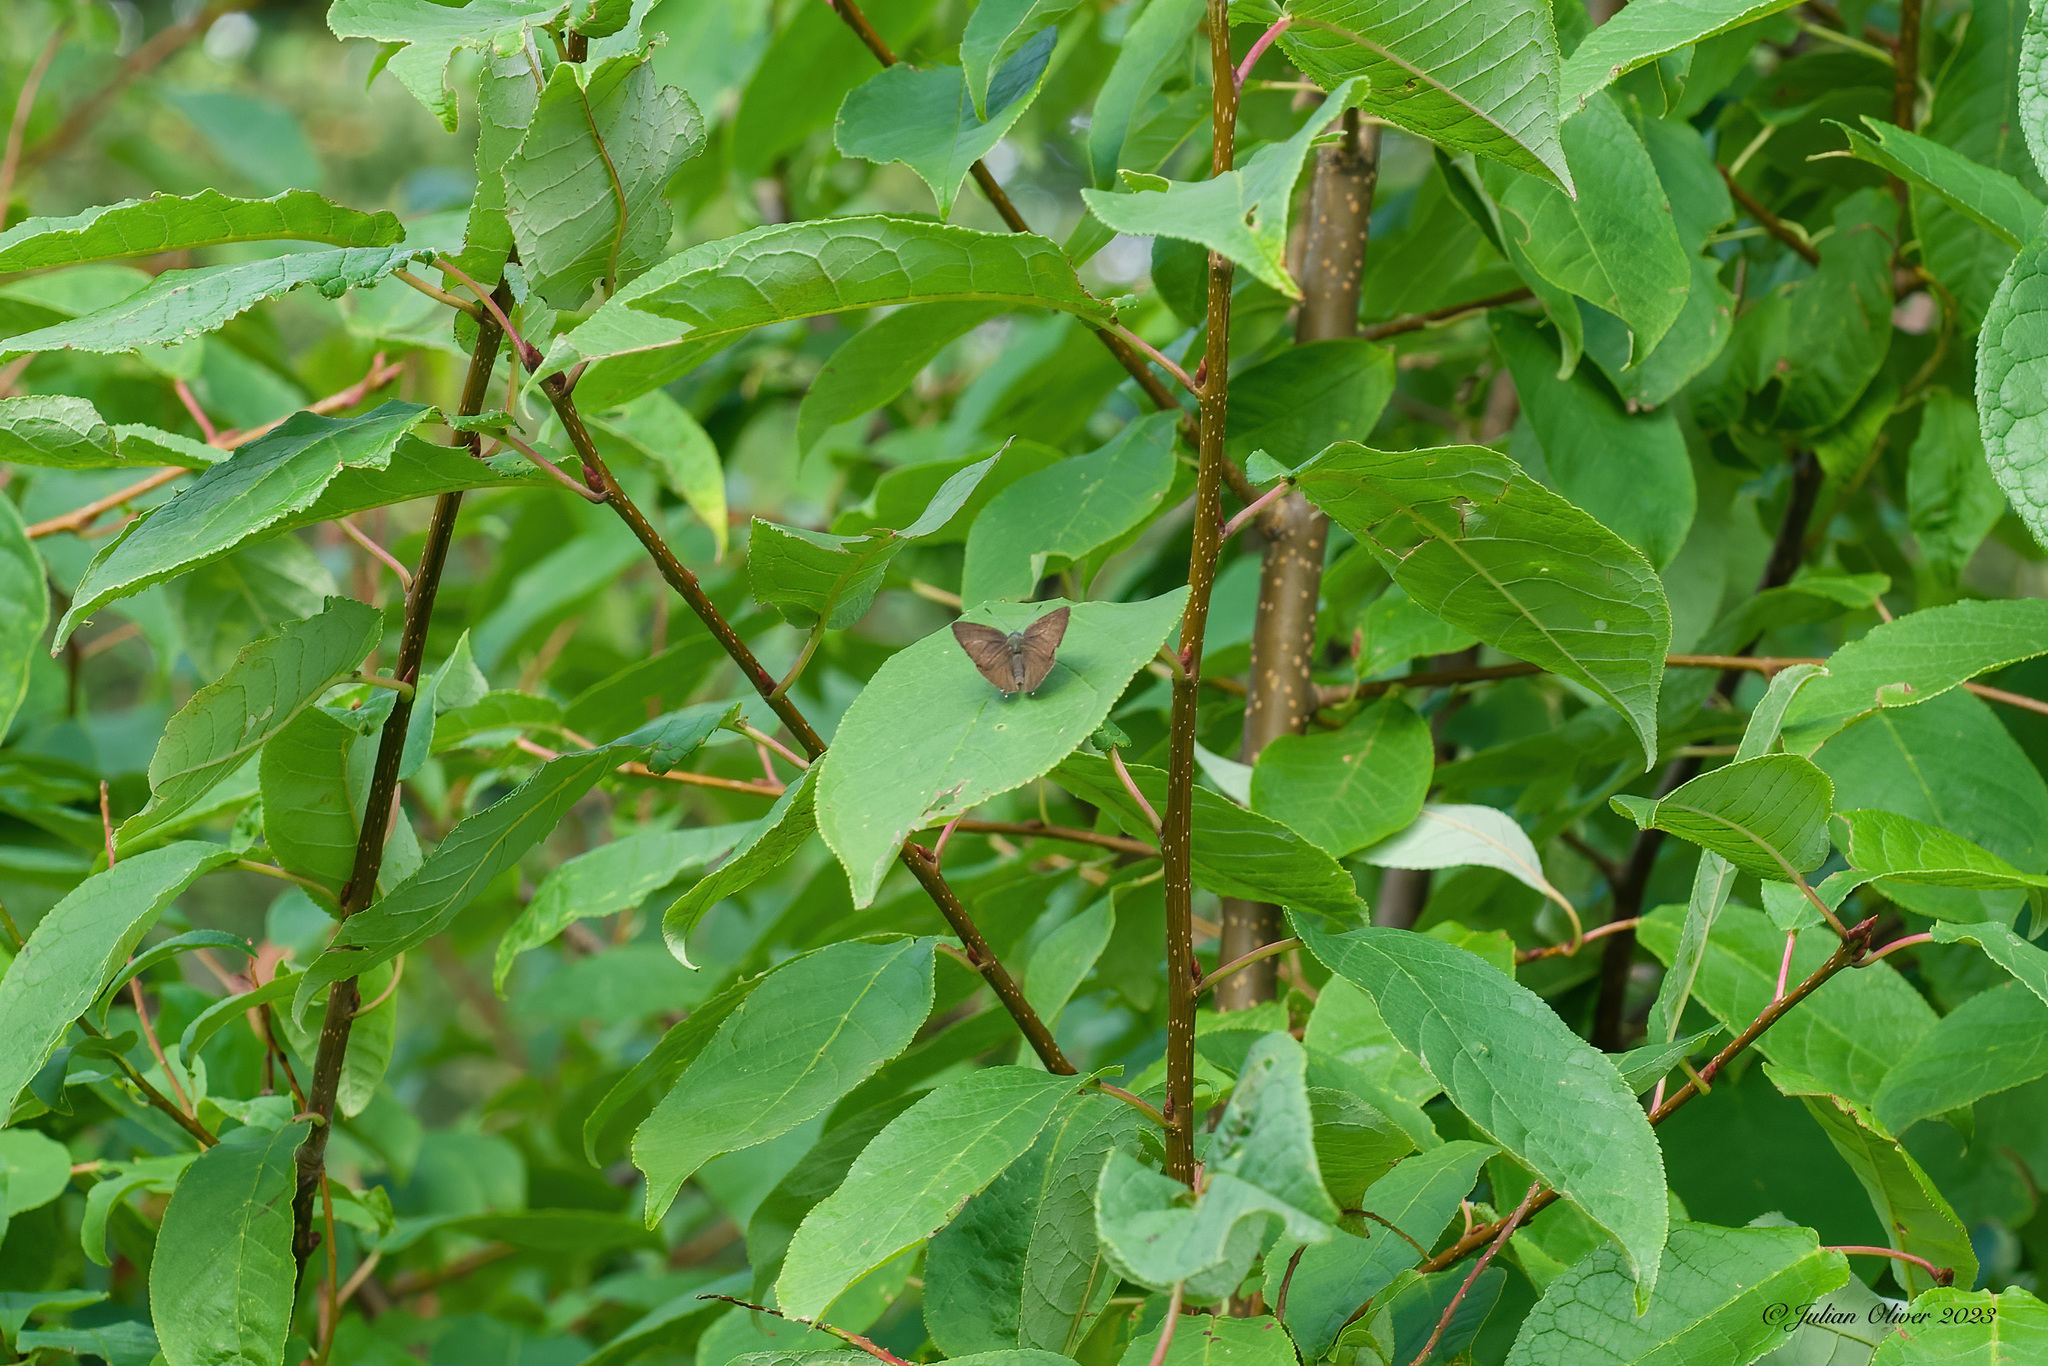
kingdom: Animalia
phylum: Arthropoda
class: Insecta
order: Lepidoptera
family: Lycaenidae
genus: Quercusia
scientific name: Quercusia quercus
